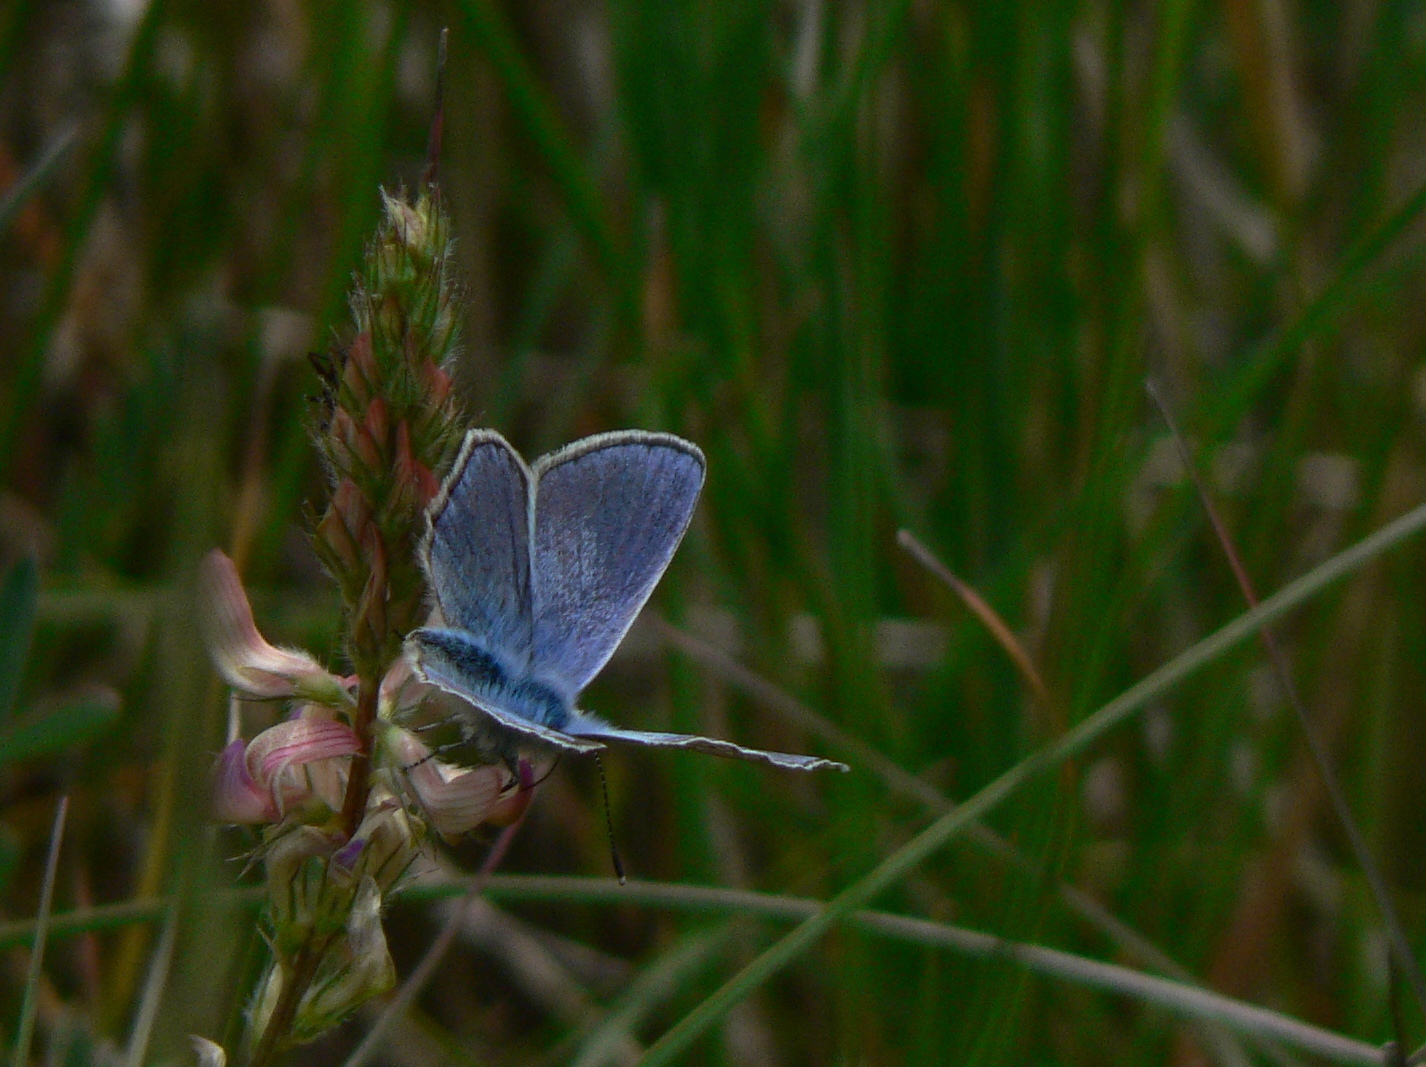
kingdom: Animalia
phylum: Arthropoda
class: Insecta
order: Lepidoptera
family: Lycaenidae
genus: Polyommatus
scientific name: Polyommatus thersites
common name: Chapman's blue
